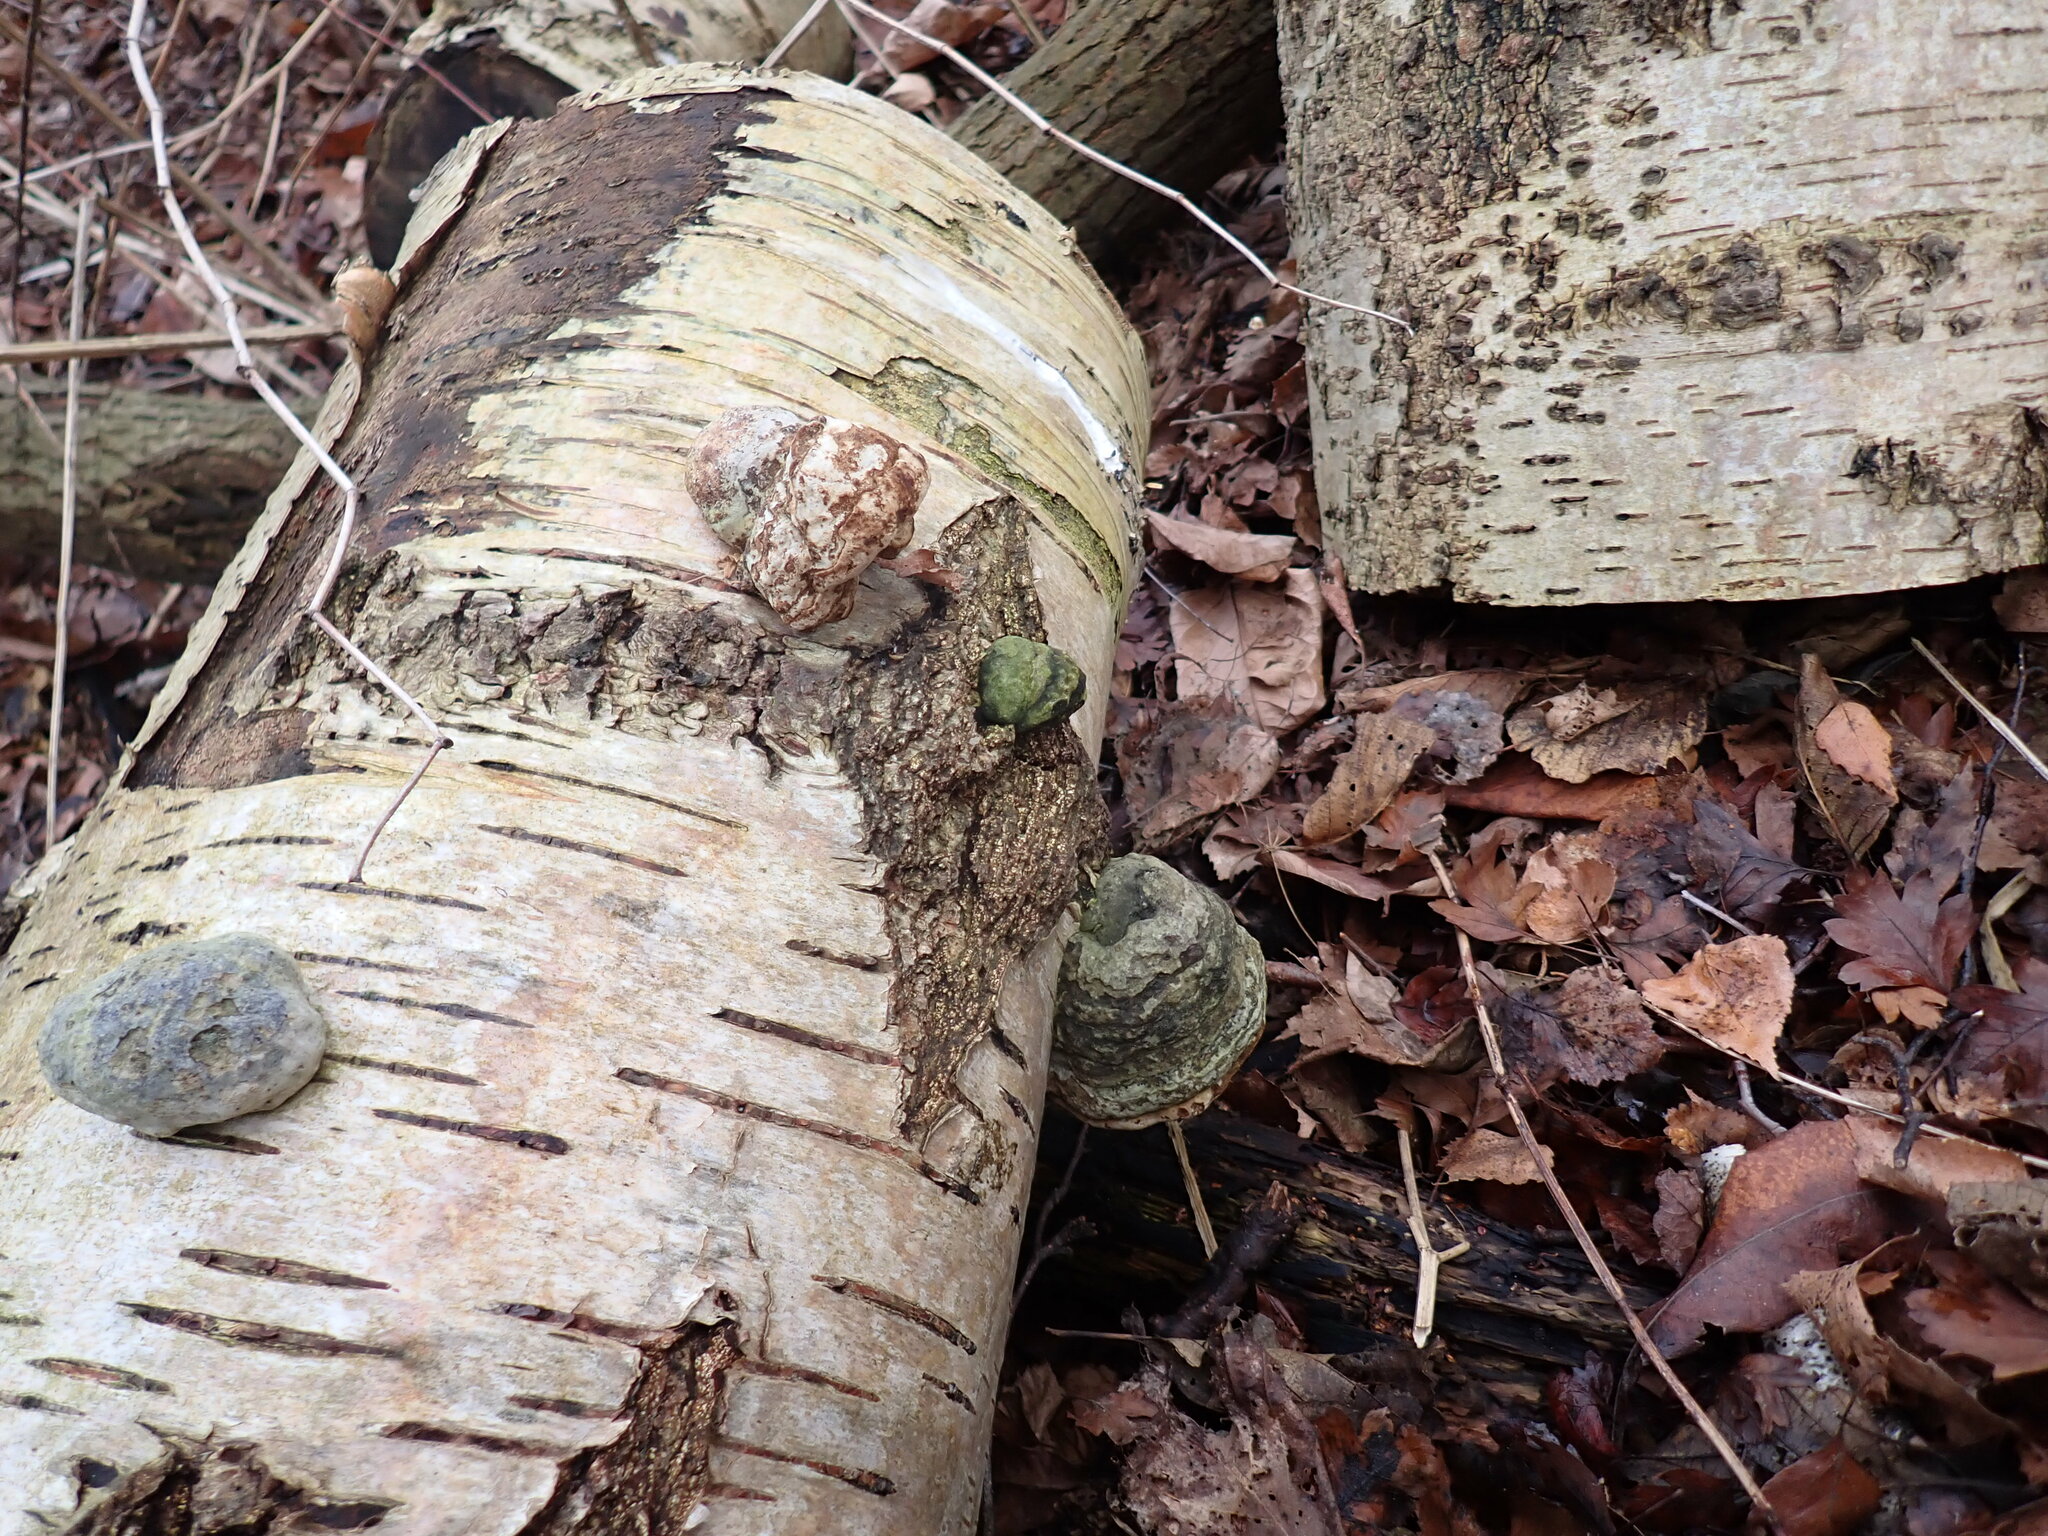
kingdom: Fungi
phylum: Basidiomycota
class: Agaricomycetes
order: Polyporales
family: Polyporaceae
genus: Fomes
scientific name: Fomes fomentarius
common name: Hoof fungus
